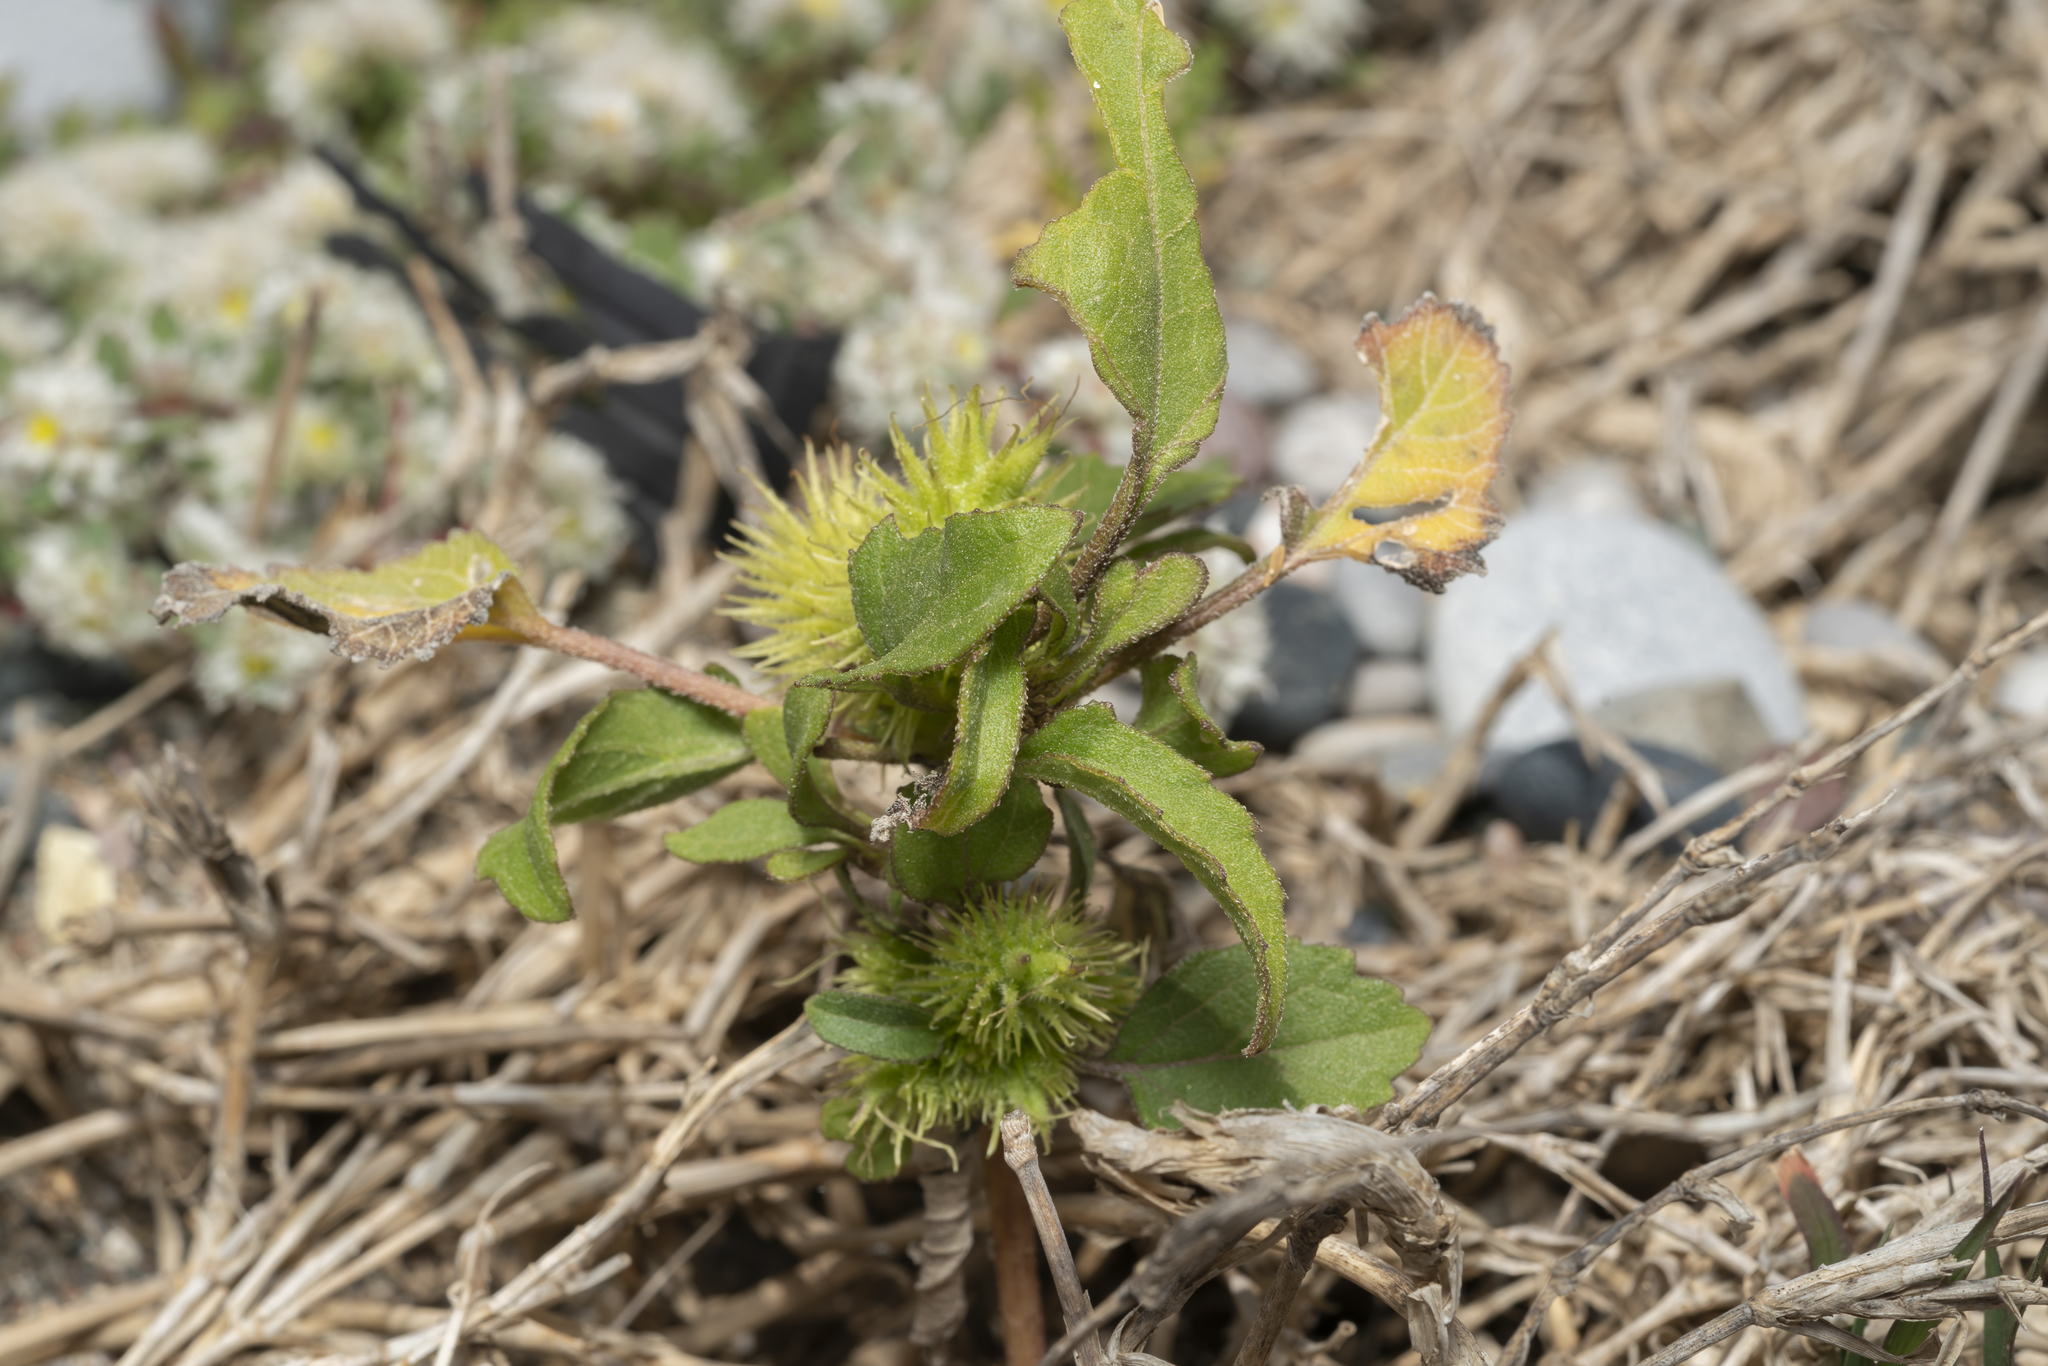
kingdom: Plantae
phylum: Tracheophyta
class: Magnoliopsida
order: Asterales
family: Asteraceae
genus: Xanthium
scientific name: Xanthium orientale
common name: Californian burr
